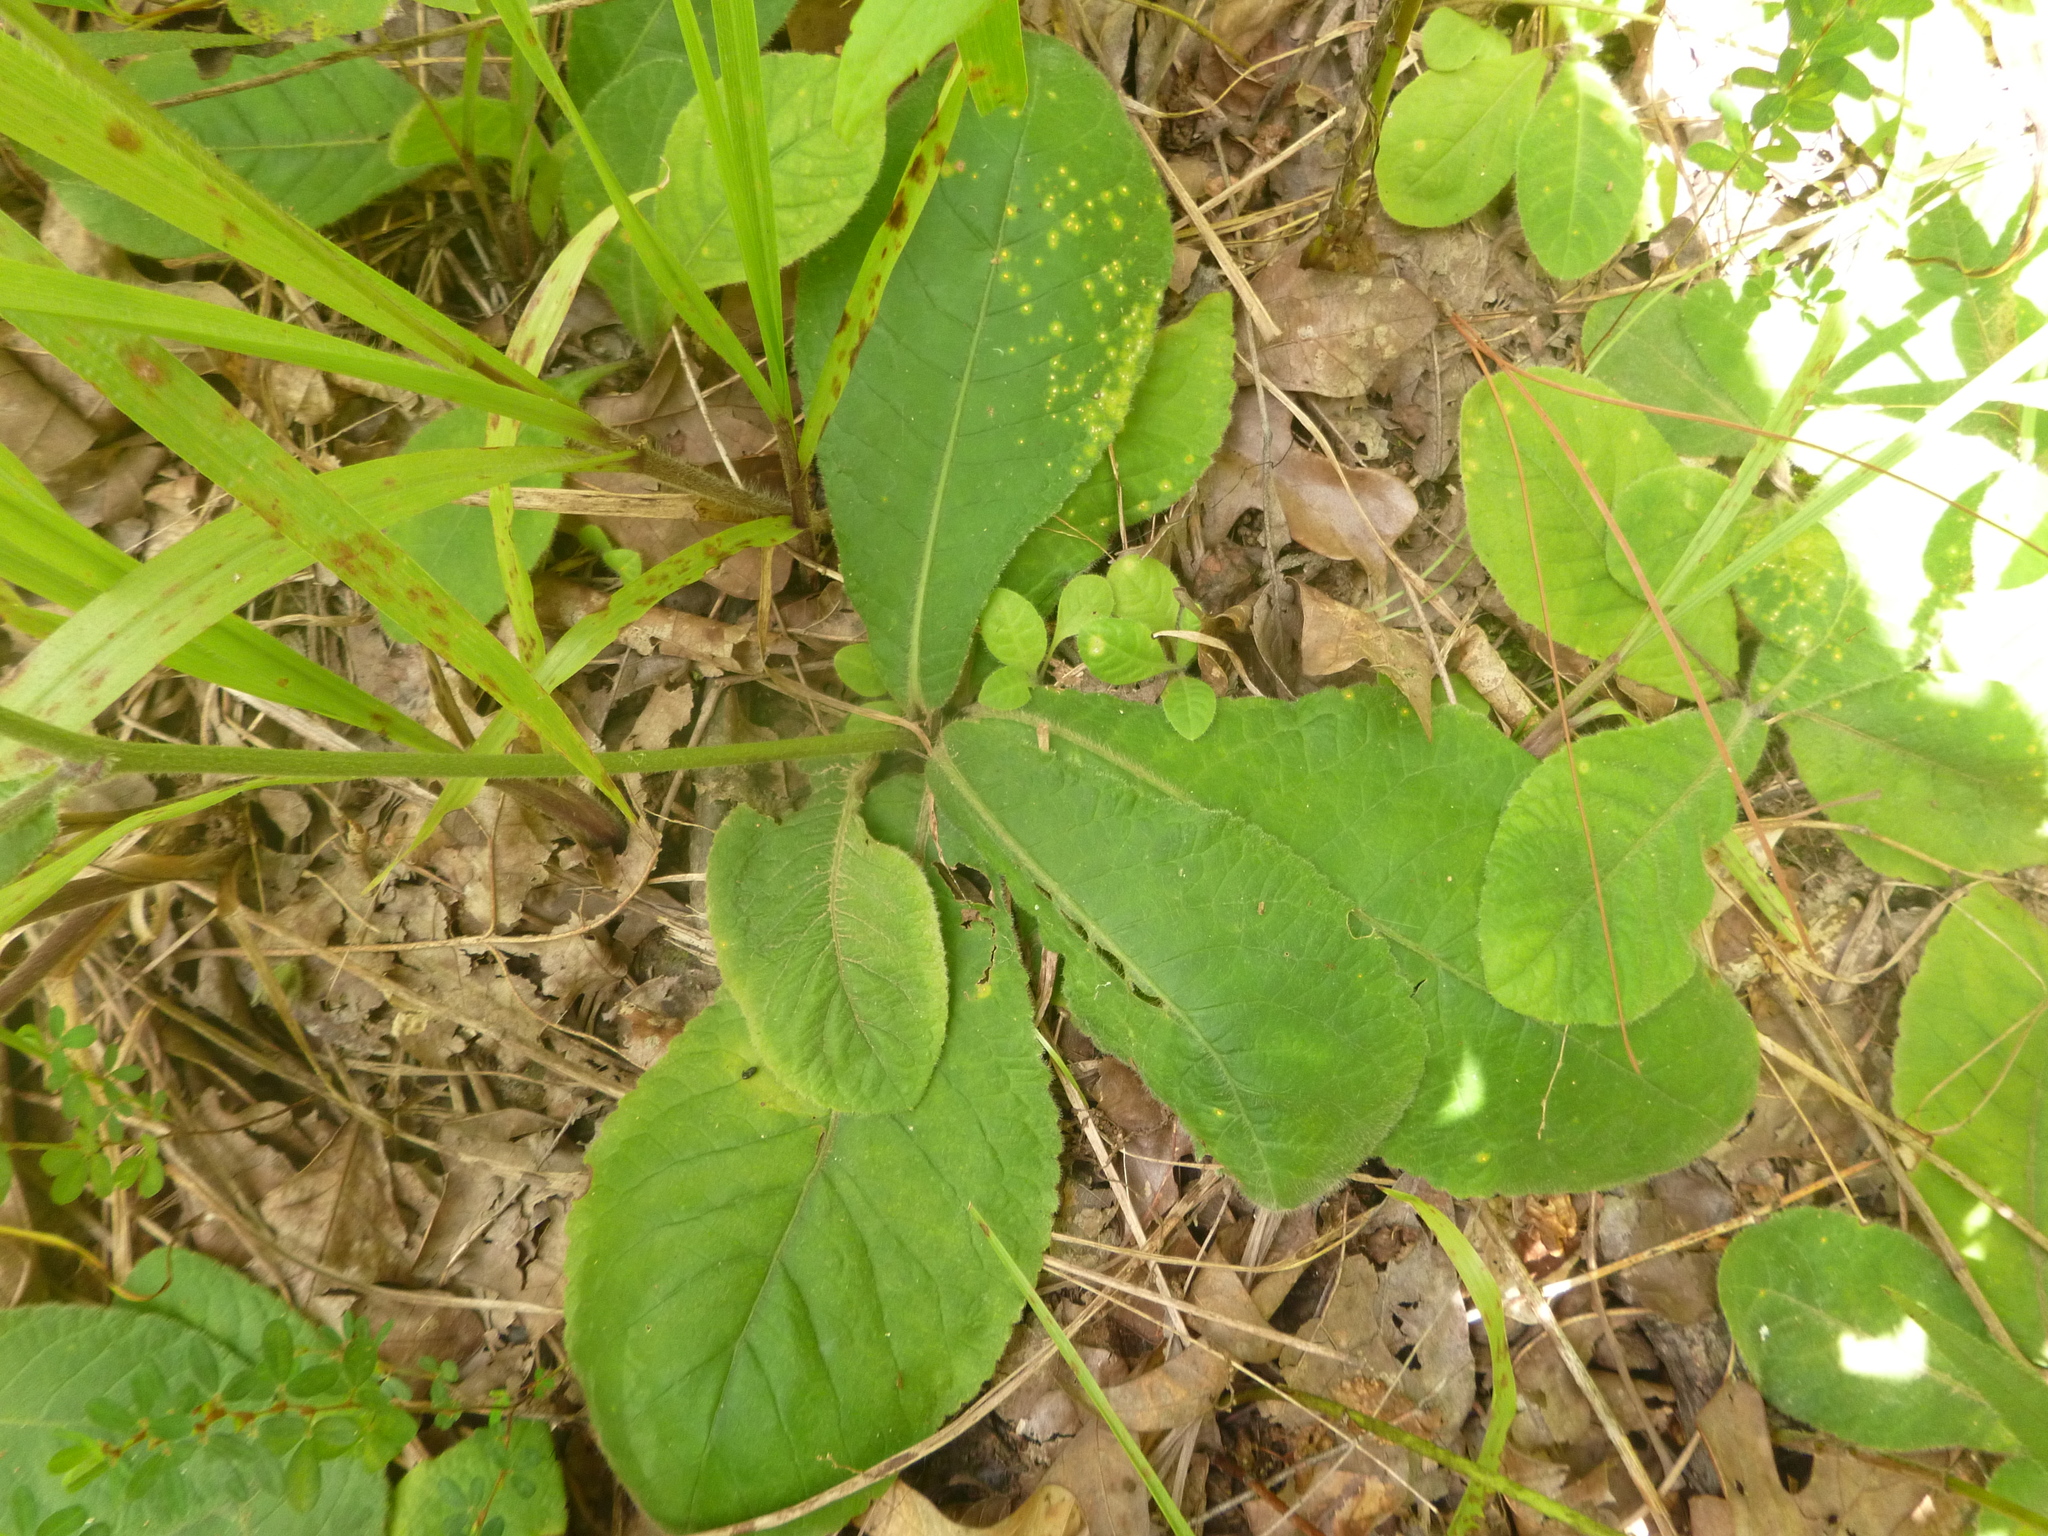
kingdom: Plantae
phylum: Tracheophyta
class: Magnoliopsida
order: Asterales
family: Asteraceae
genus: Elephantopus
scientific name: Elephantopus tomentosus
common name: Tobacco-weed
